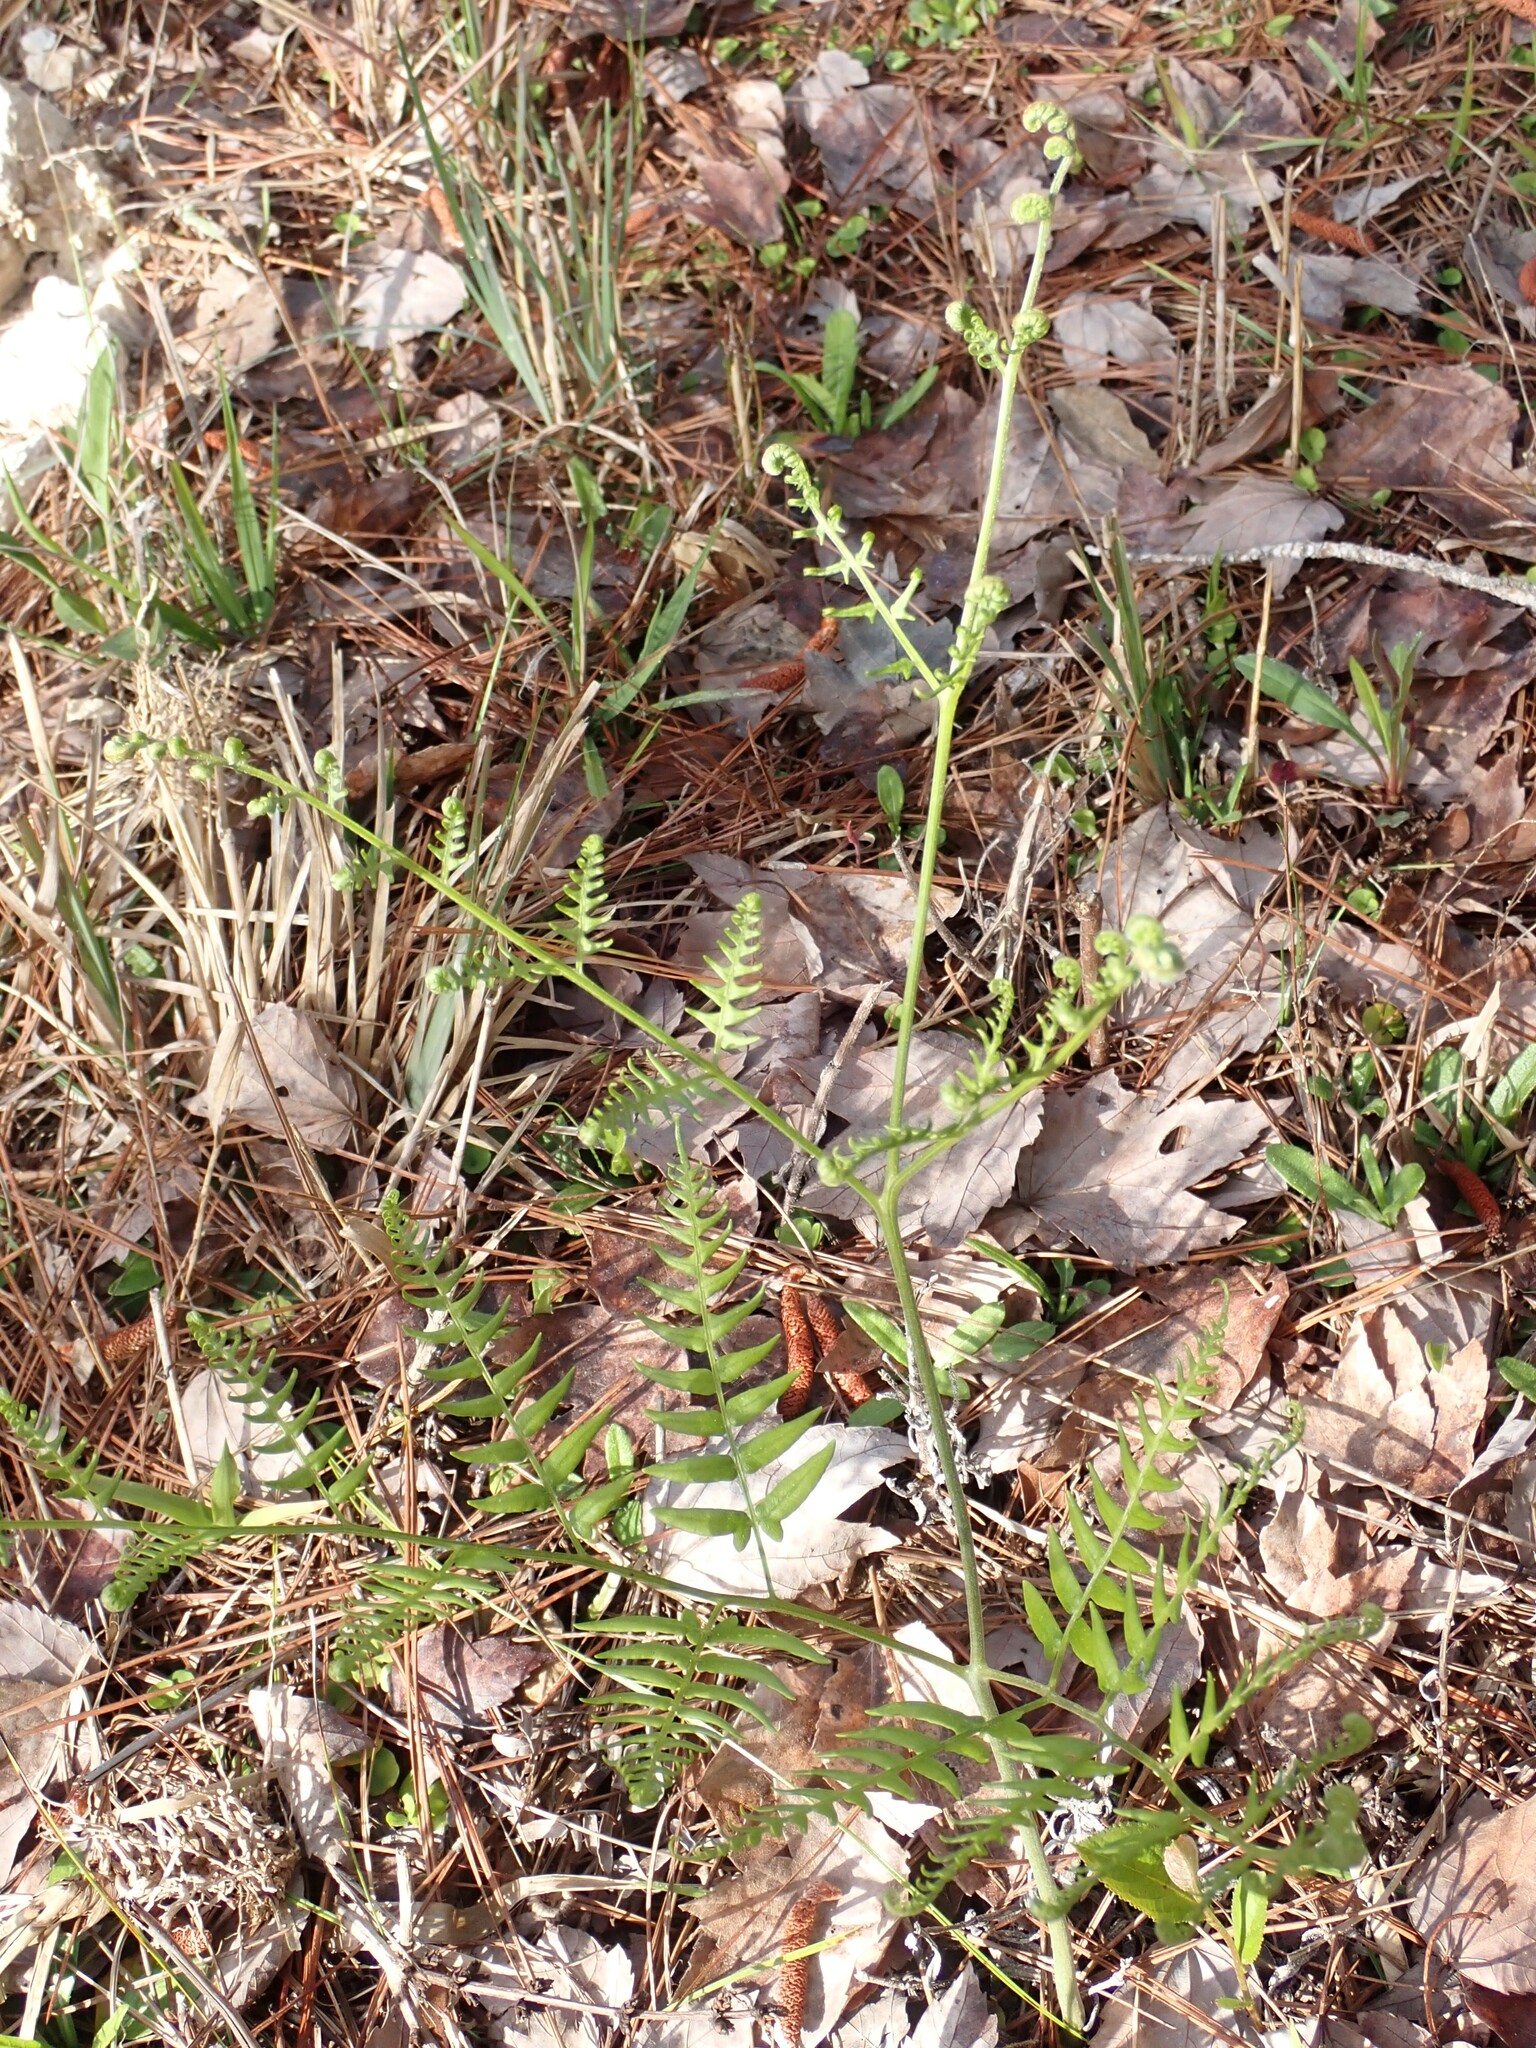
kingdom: Plantae
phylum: Tracheophyta
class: Polypodiopsida
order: Polypodiales
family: Dennstaedtiaceae
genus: Pteridium
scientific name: Pteridium
